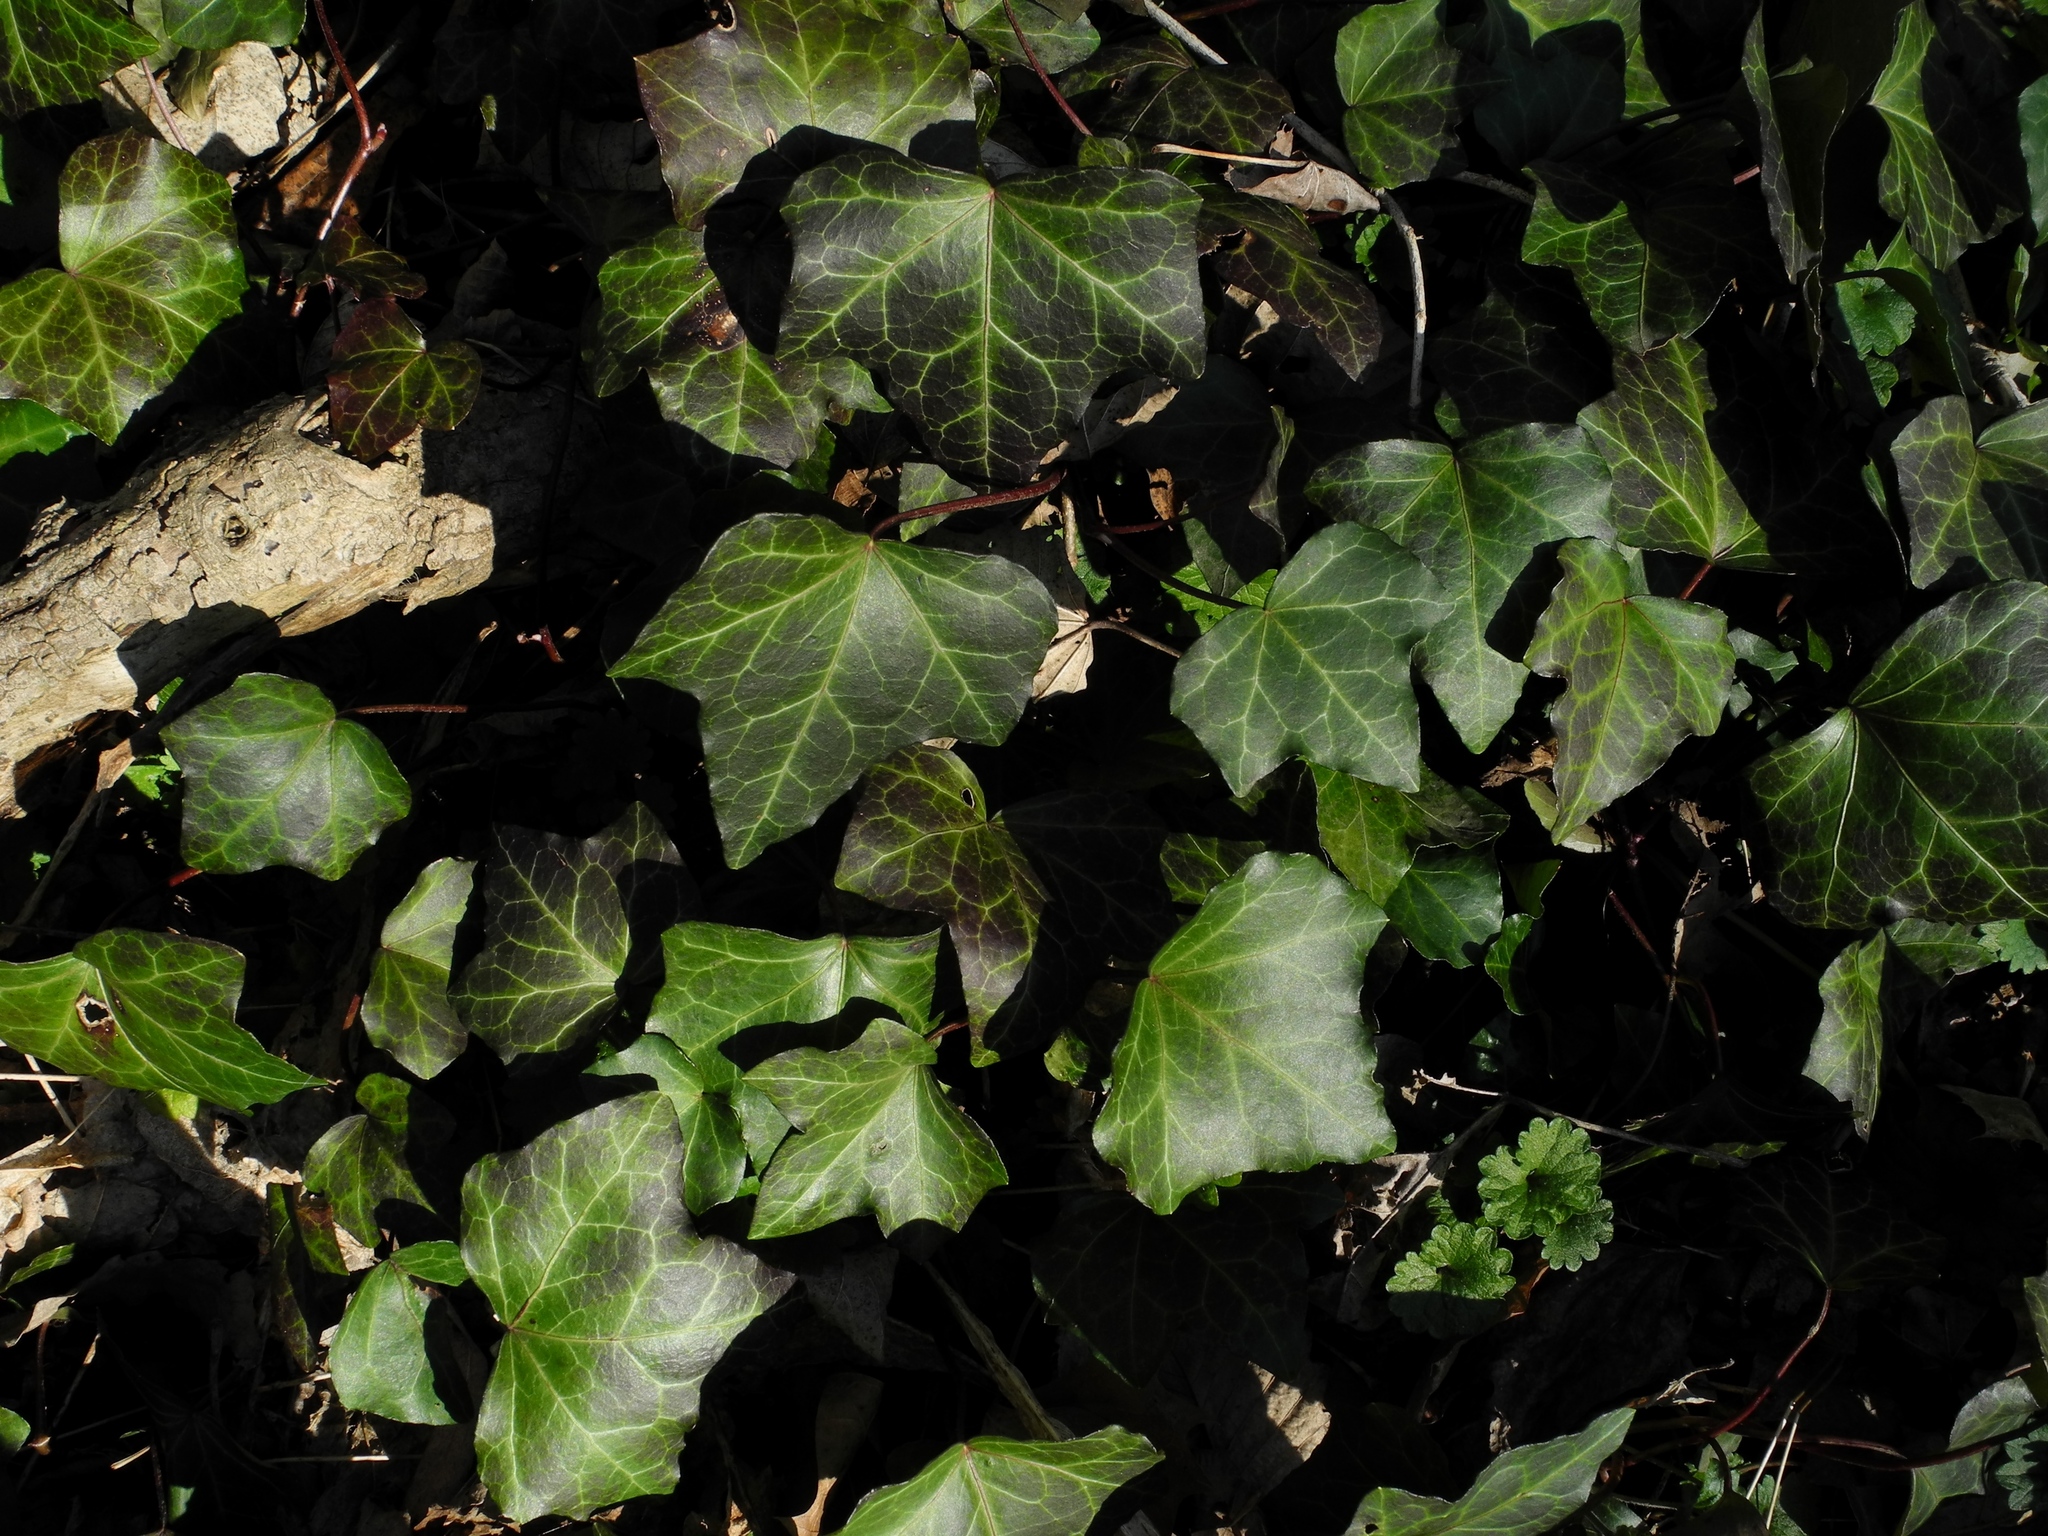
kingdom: Plantae
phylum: Tracheophyta
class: Magnoliopsida
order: Apiales
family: Araliaceae
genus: Hedera
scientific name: Hedera
